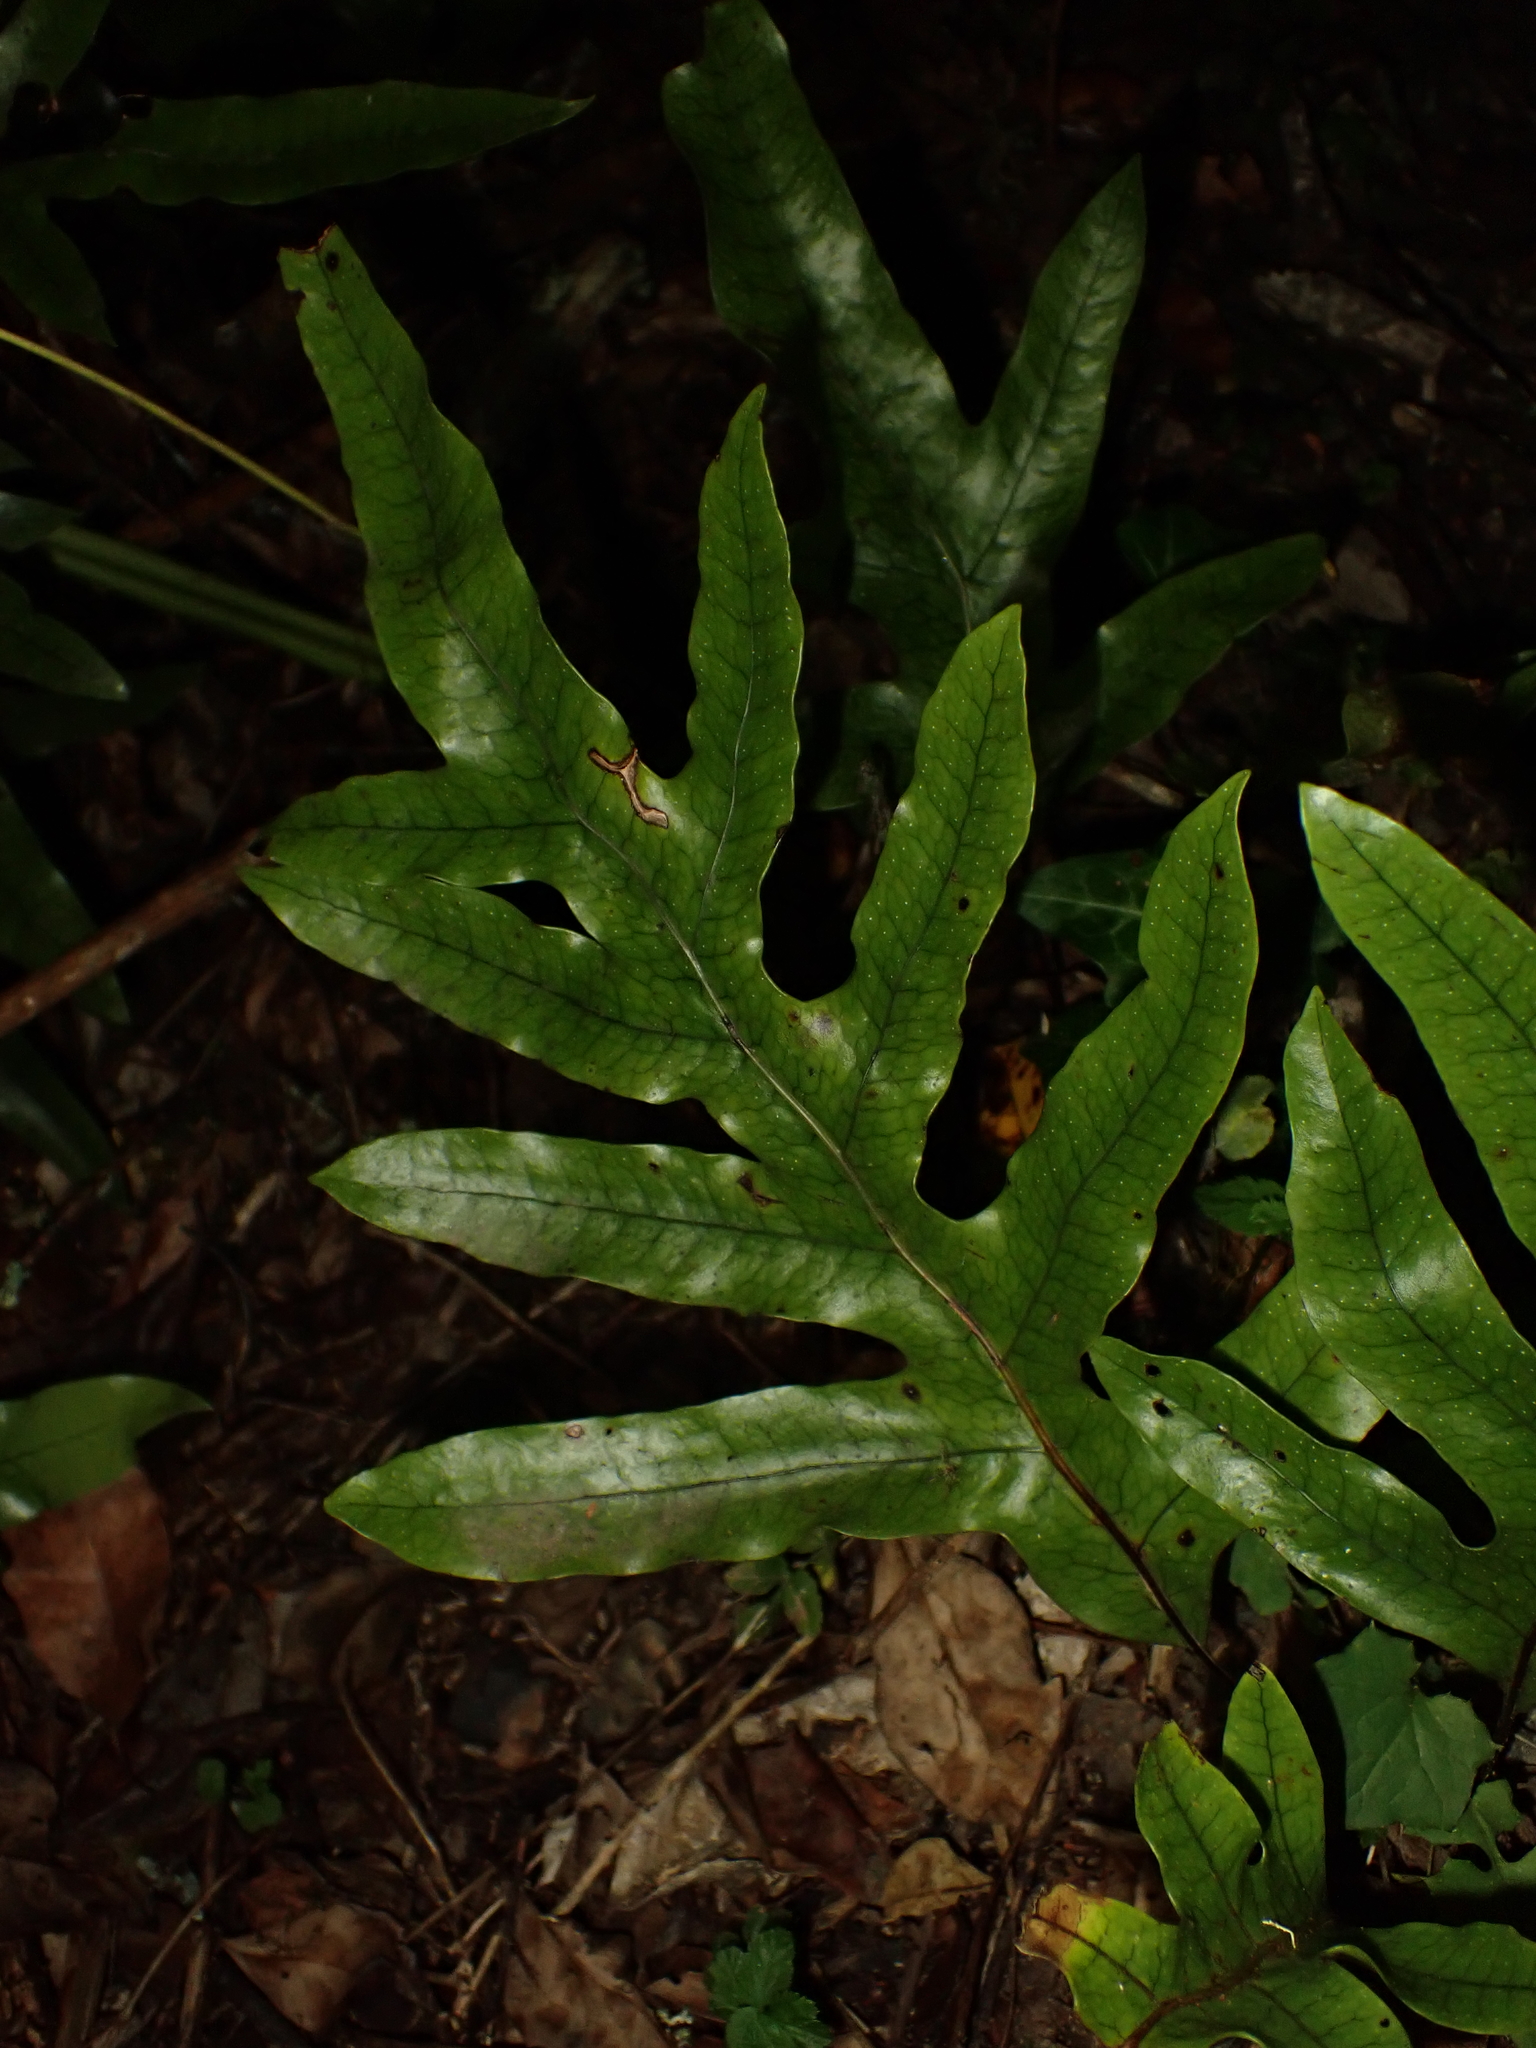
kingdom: Plantae
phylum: Tracheophyta
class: Polypodiopsida
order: Polypodiales
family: Polypodiaceae
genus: Lecanopteris
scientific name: Lecanopteris pustulata
